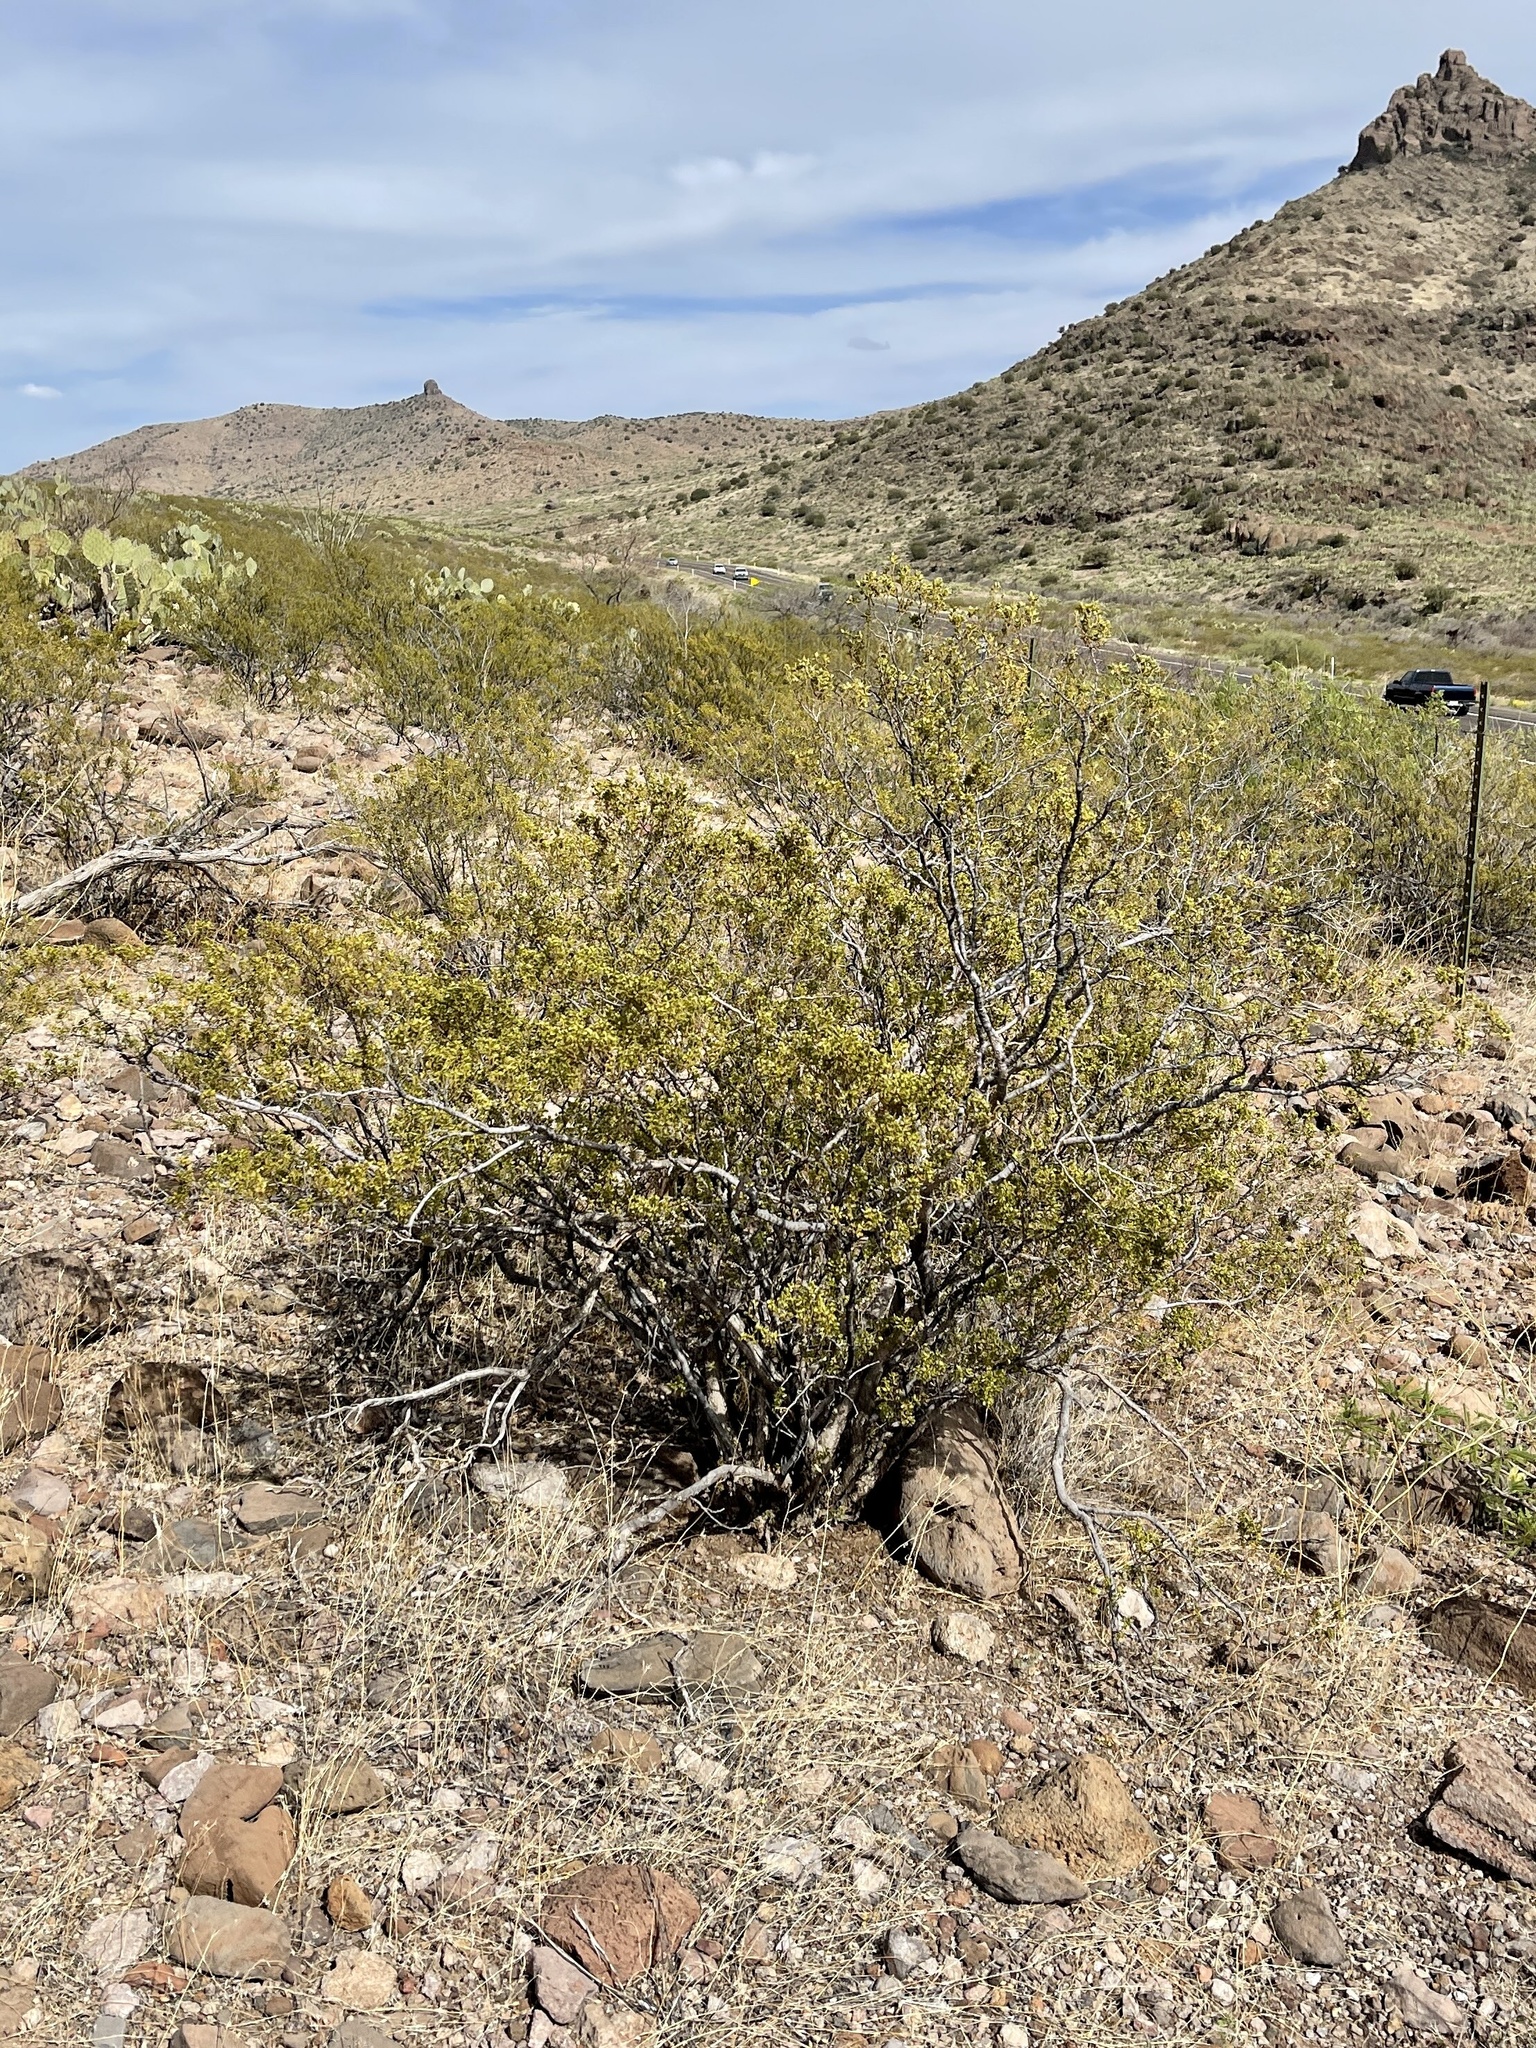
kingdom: Plantae
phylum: Tracheophyta
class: Magnoliopsida
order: Zygophyllales
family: Zygophyllaceae
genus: Larrea
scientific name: Larrea tridentata
